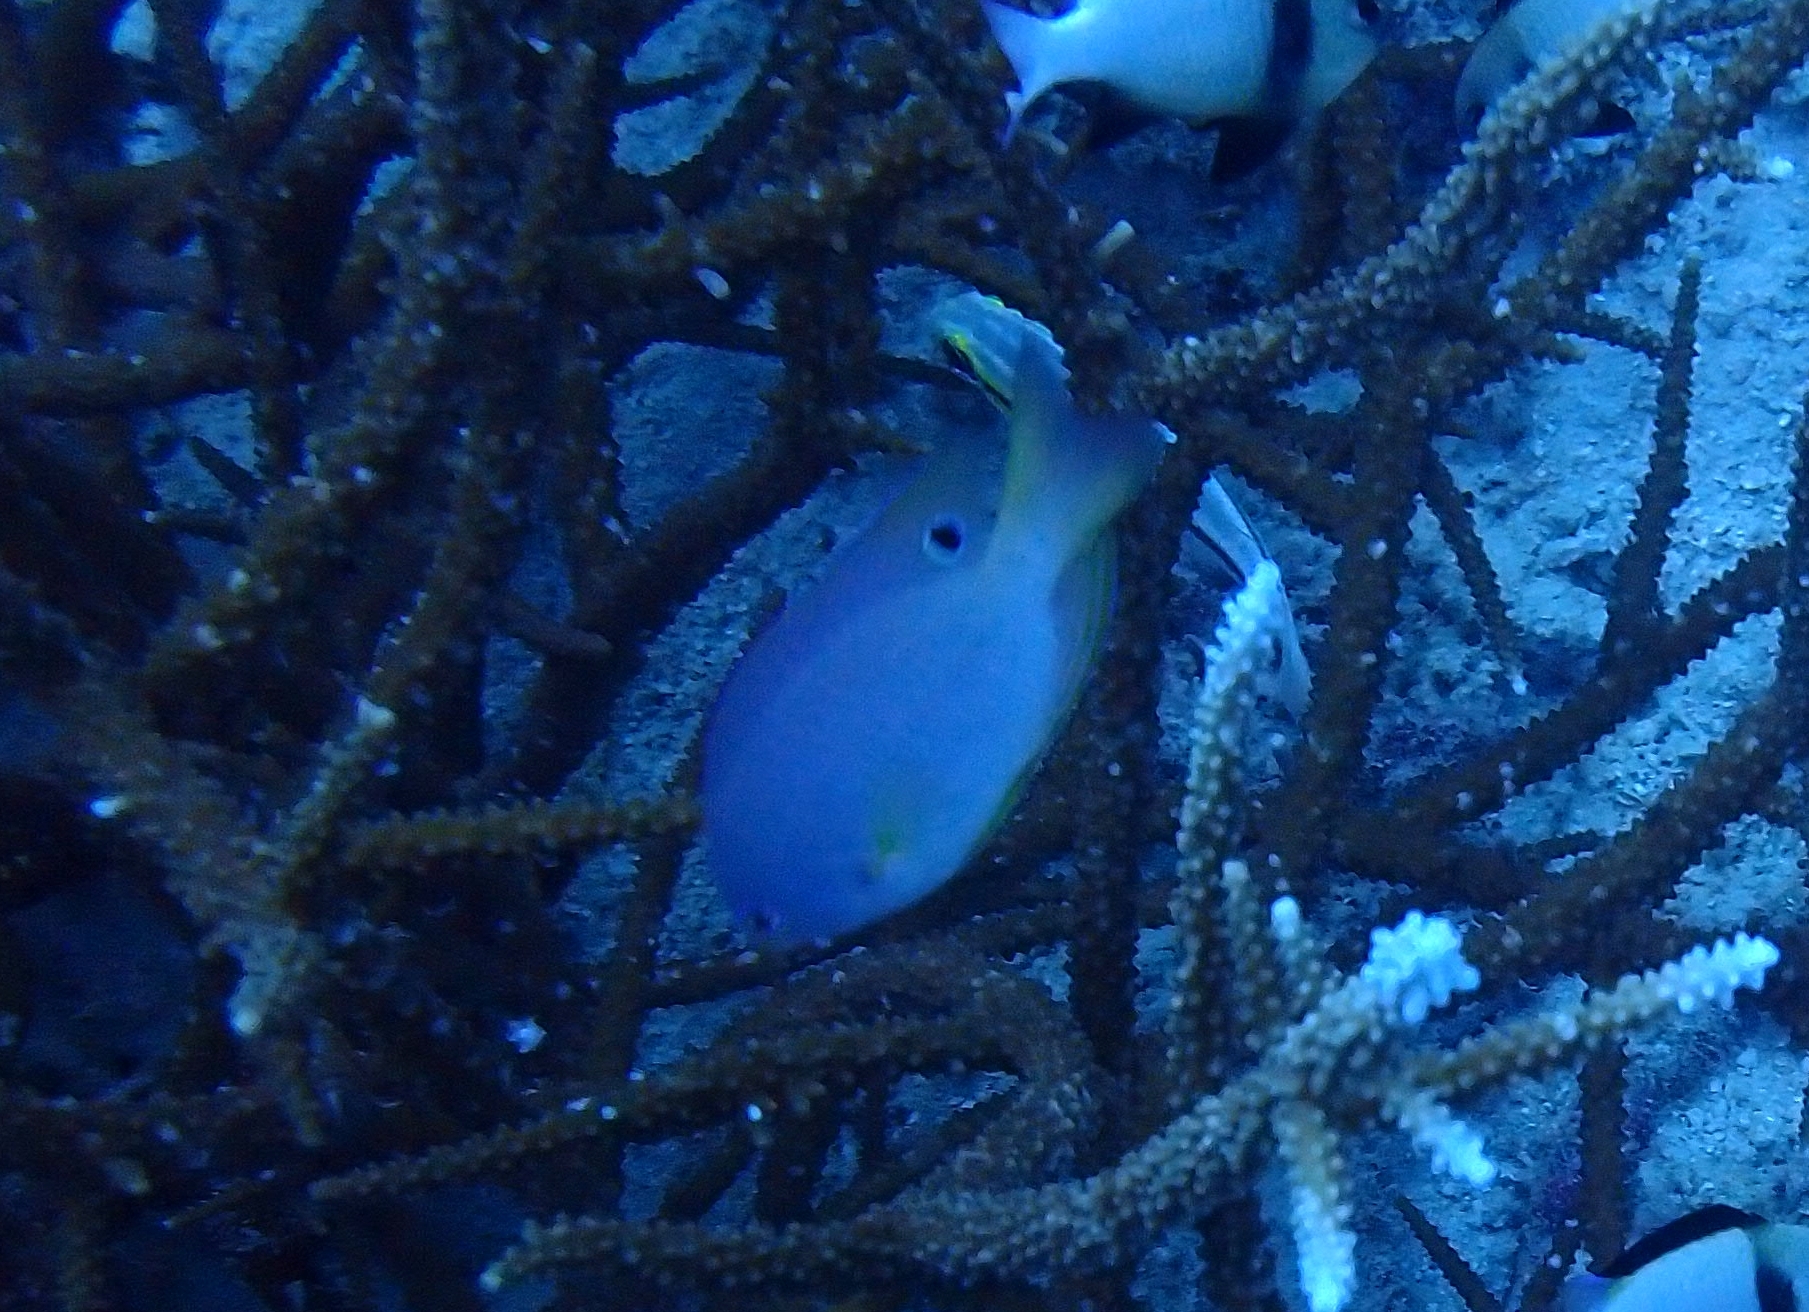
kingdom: Animalia
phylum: Chordata
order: Perciformes
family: Pomacentridae
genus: Pomacentrus
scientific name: Pomacentrus andamanensis
